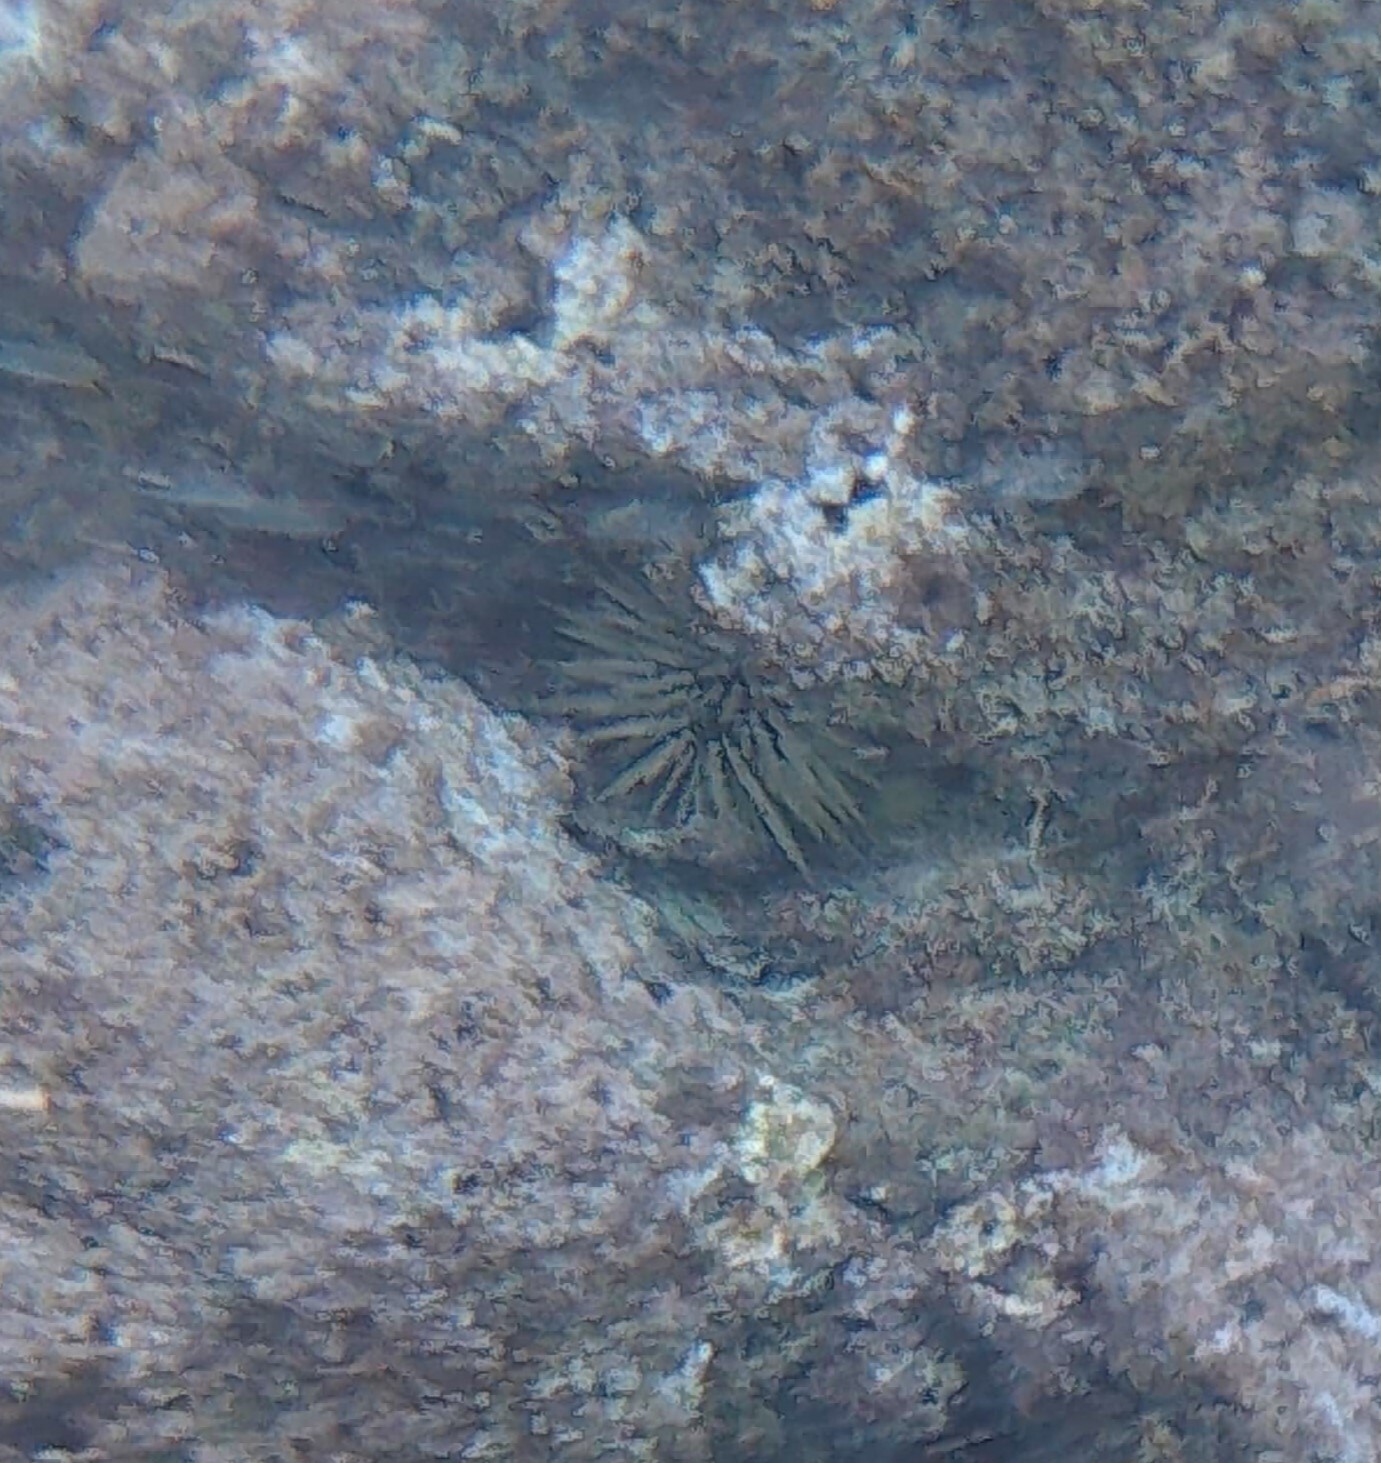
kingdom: Animalia
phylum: Echinodermata
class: Echinoidea
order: Camarodonta
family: Echinometridae
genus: Echinometra
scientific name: Echinometra mathaei
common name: Rock-boring urchin
